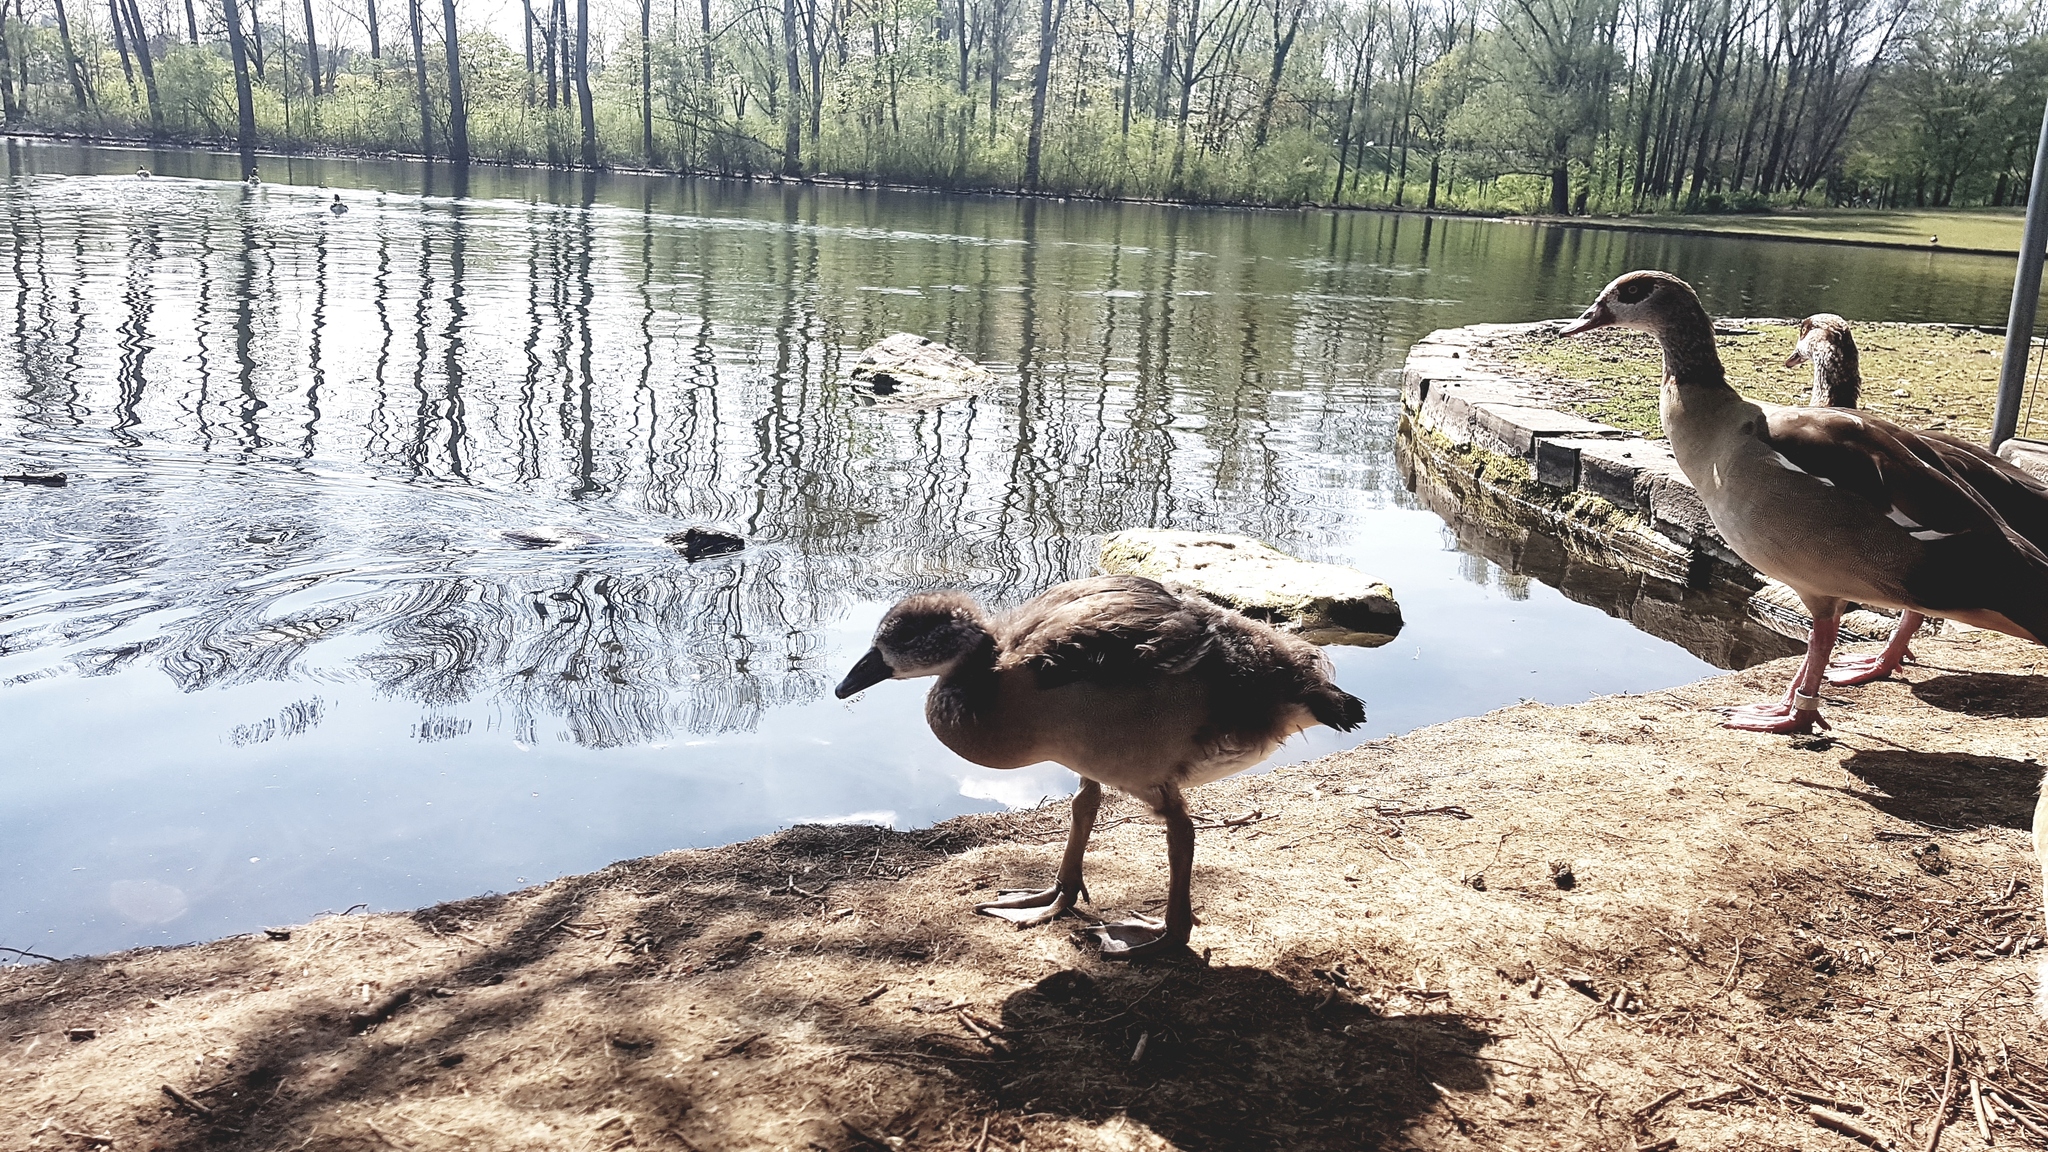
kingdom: Animalia
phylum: Chordata
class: Aves
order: Anseriformes
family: Anatidae
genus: Alopochen
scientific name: Alopochen aegyptiaca
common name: Egyptian goose
